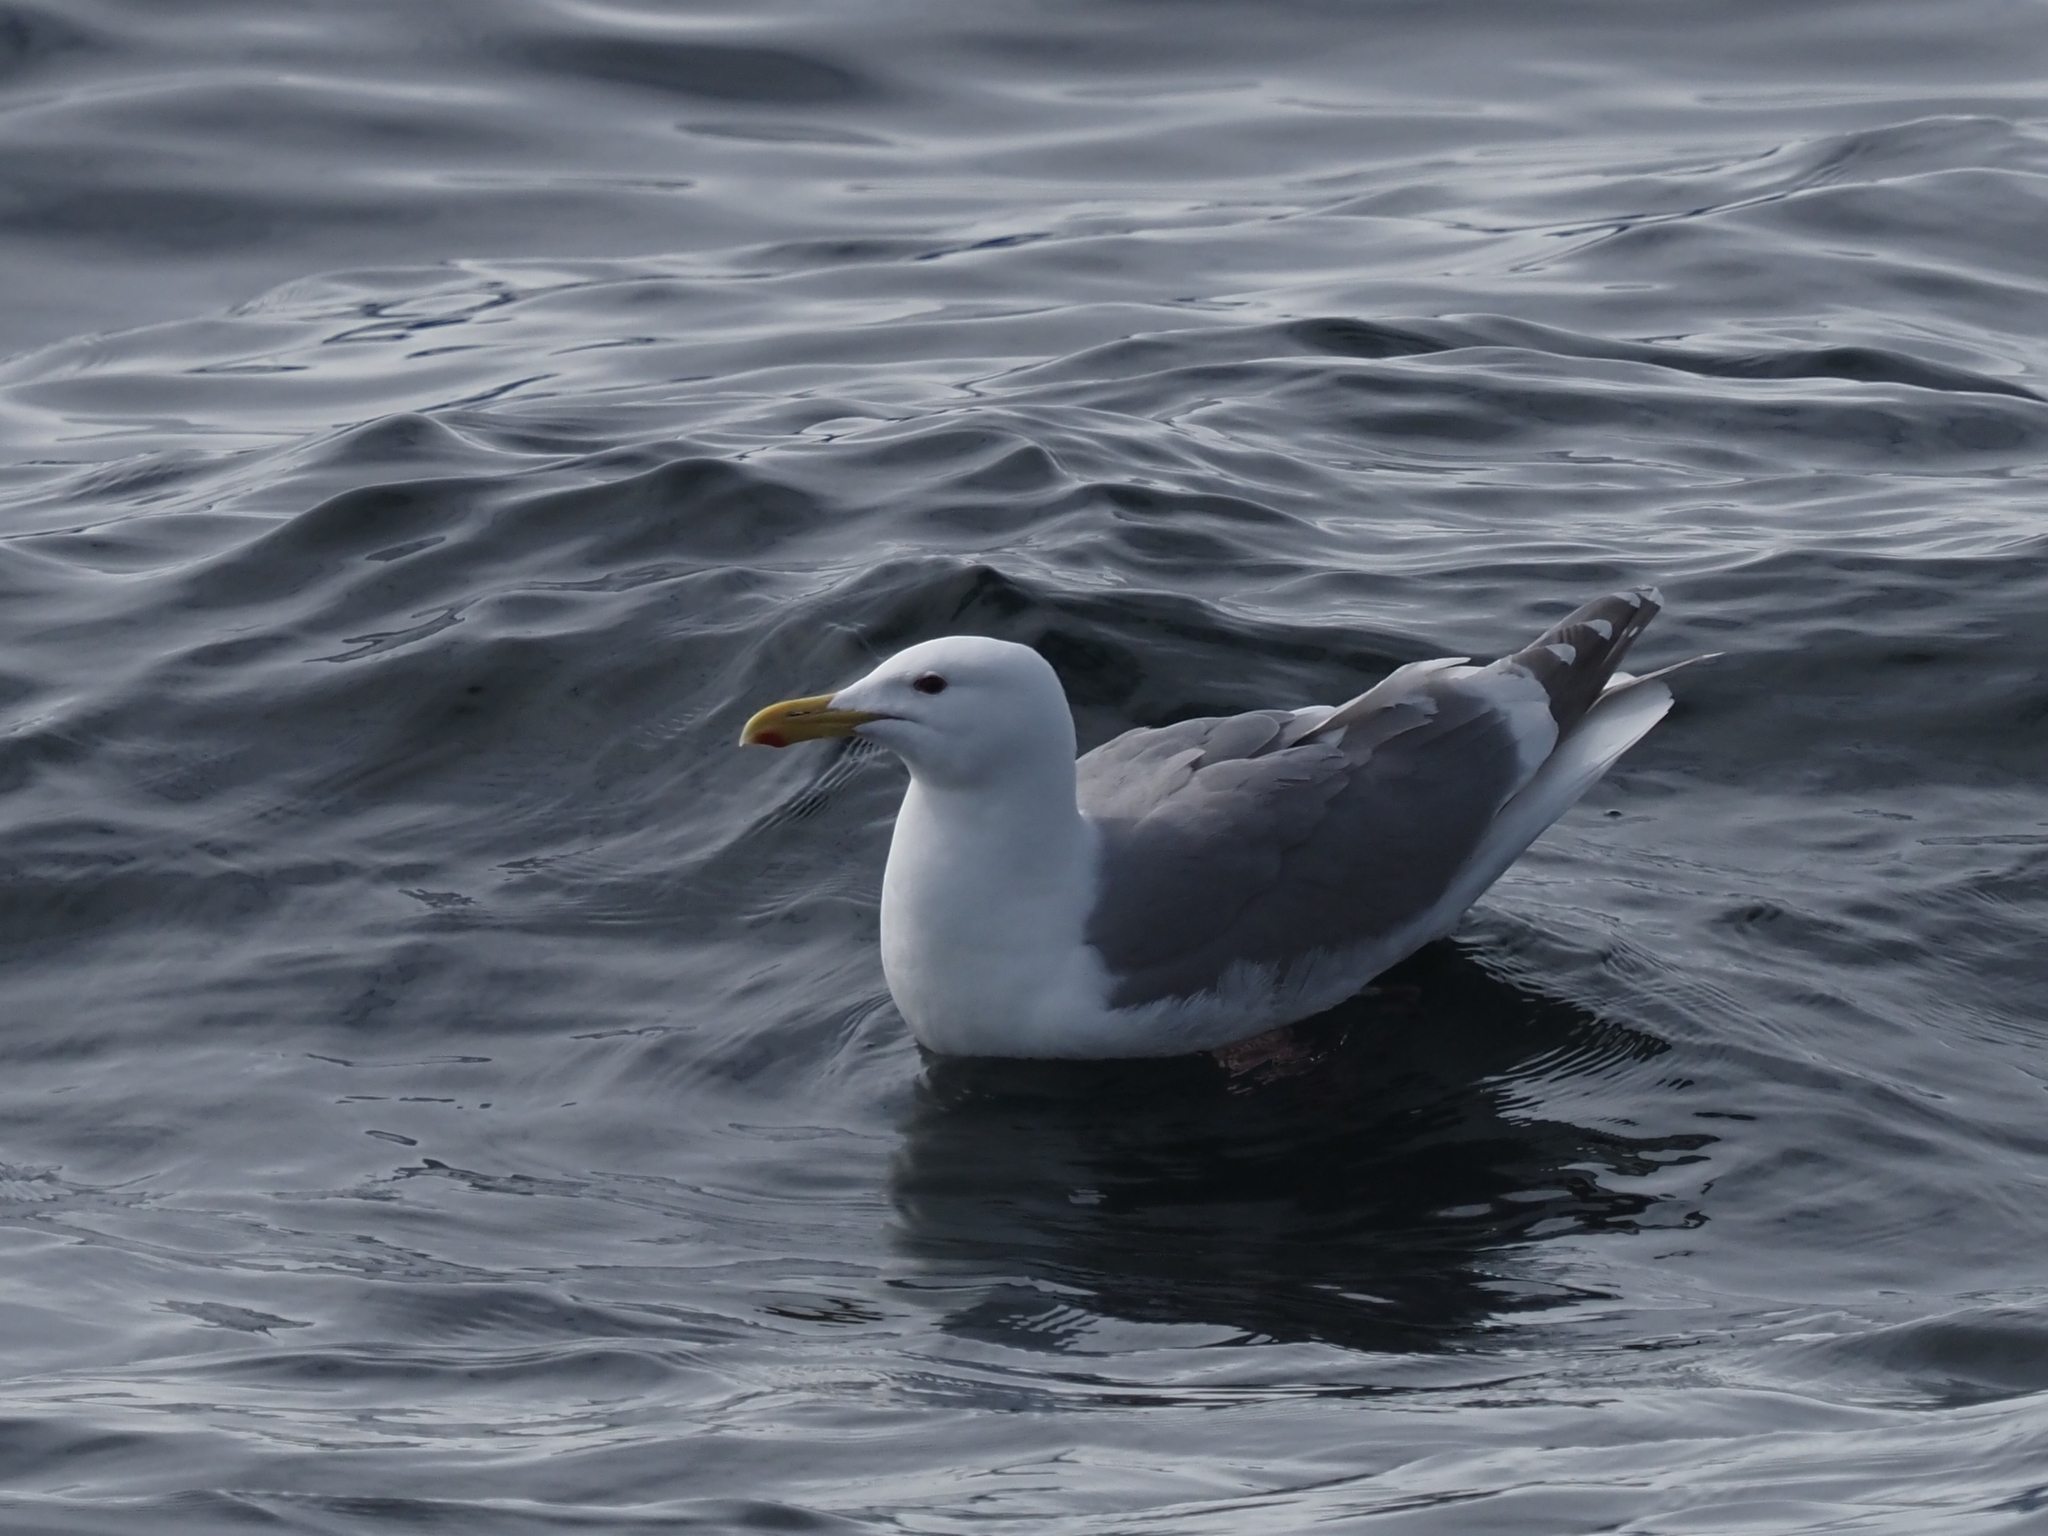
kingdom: Animalia
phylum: Chordata
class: Aves
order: Charadriiformes
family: Laridae
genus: Larus
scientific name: Larus glaucescens
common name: Glaucous-winged gull
